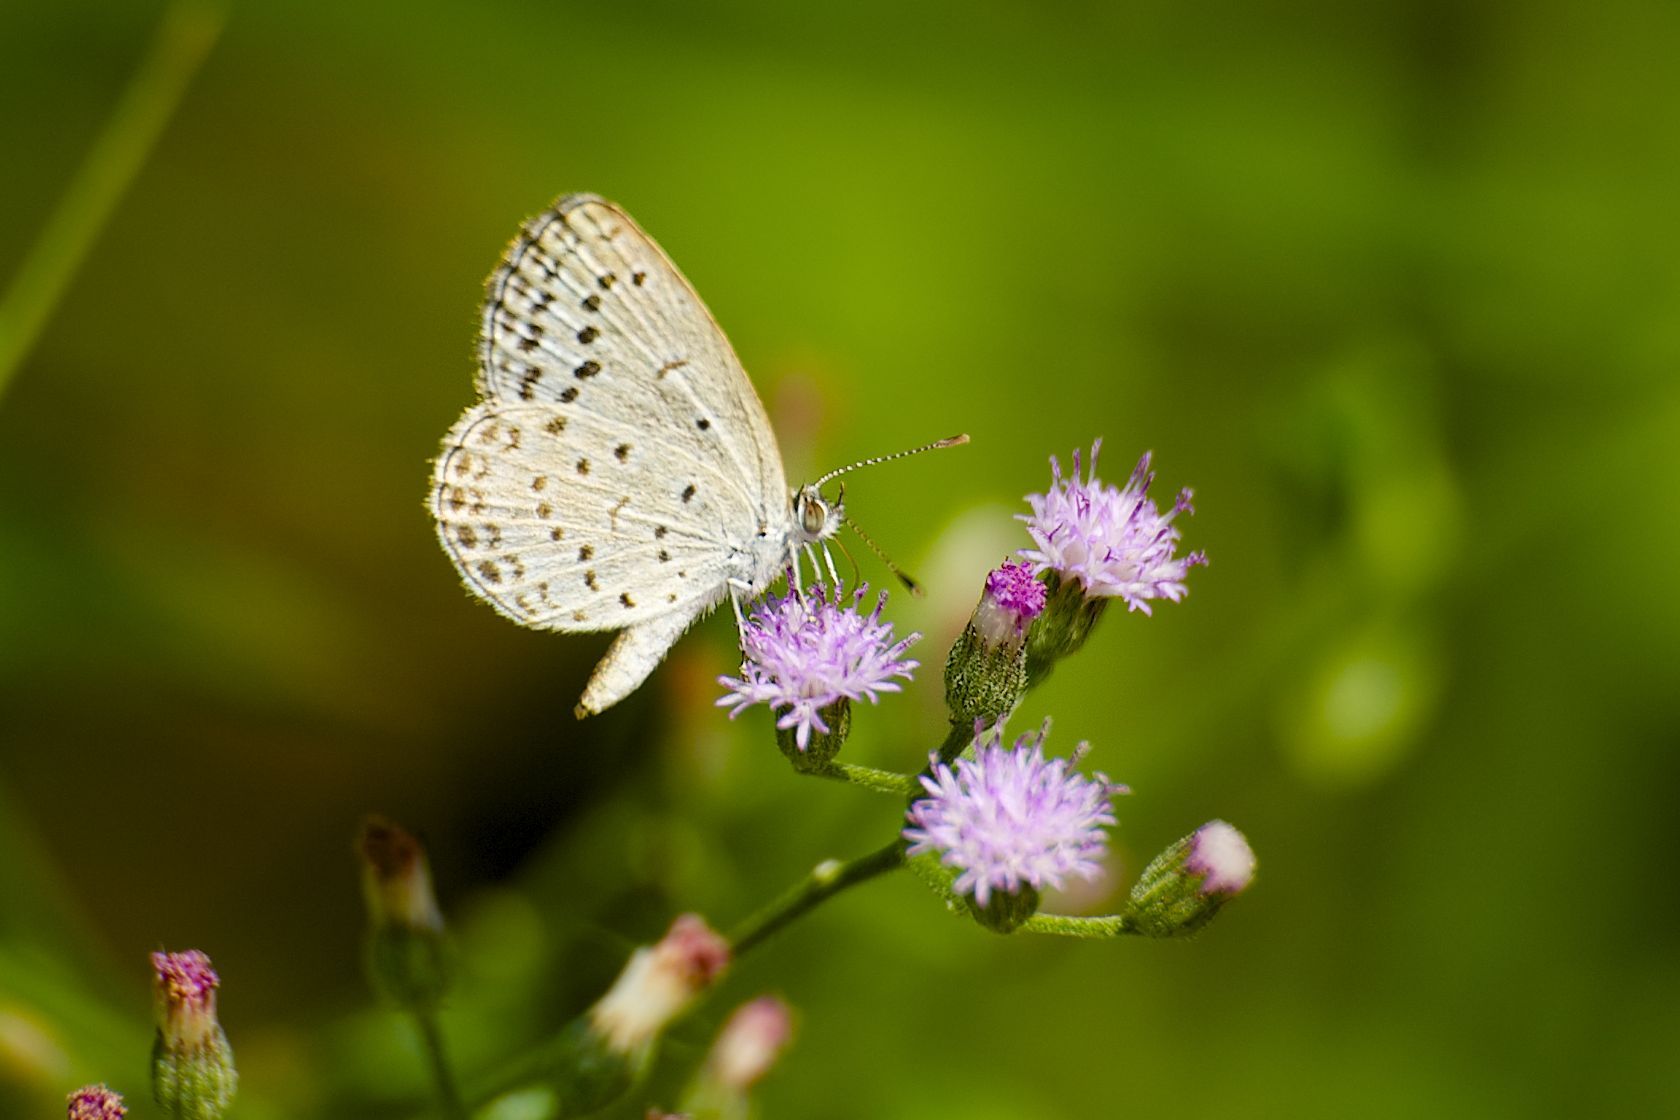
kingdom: Animalia
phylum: Arthropoda
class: Insecta
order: Lepidoptera
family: Lycaenidae
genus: Pseudozizeeria
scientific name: Pseudozizeeria maha
